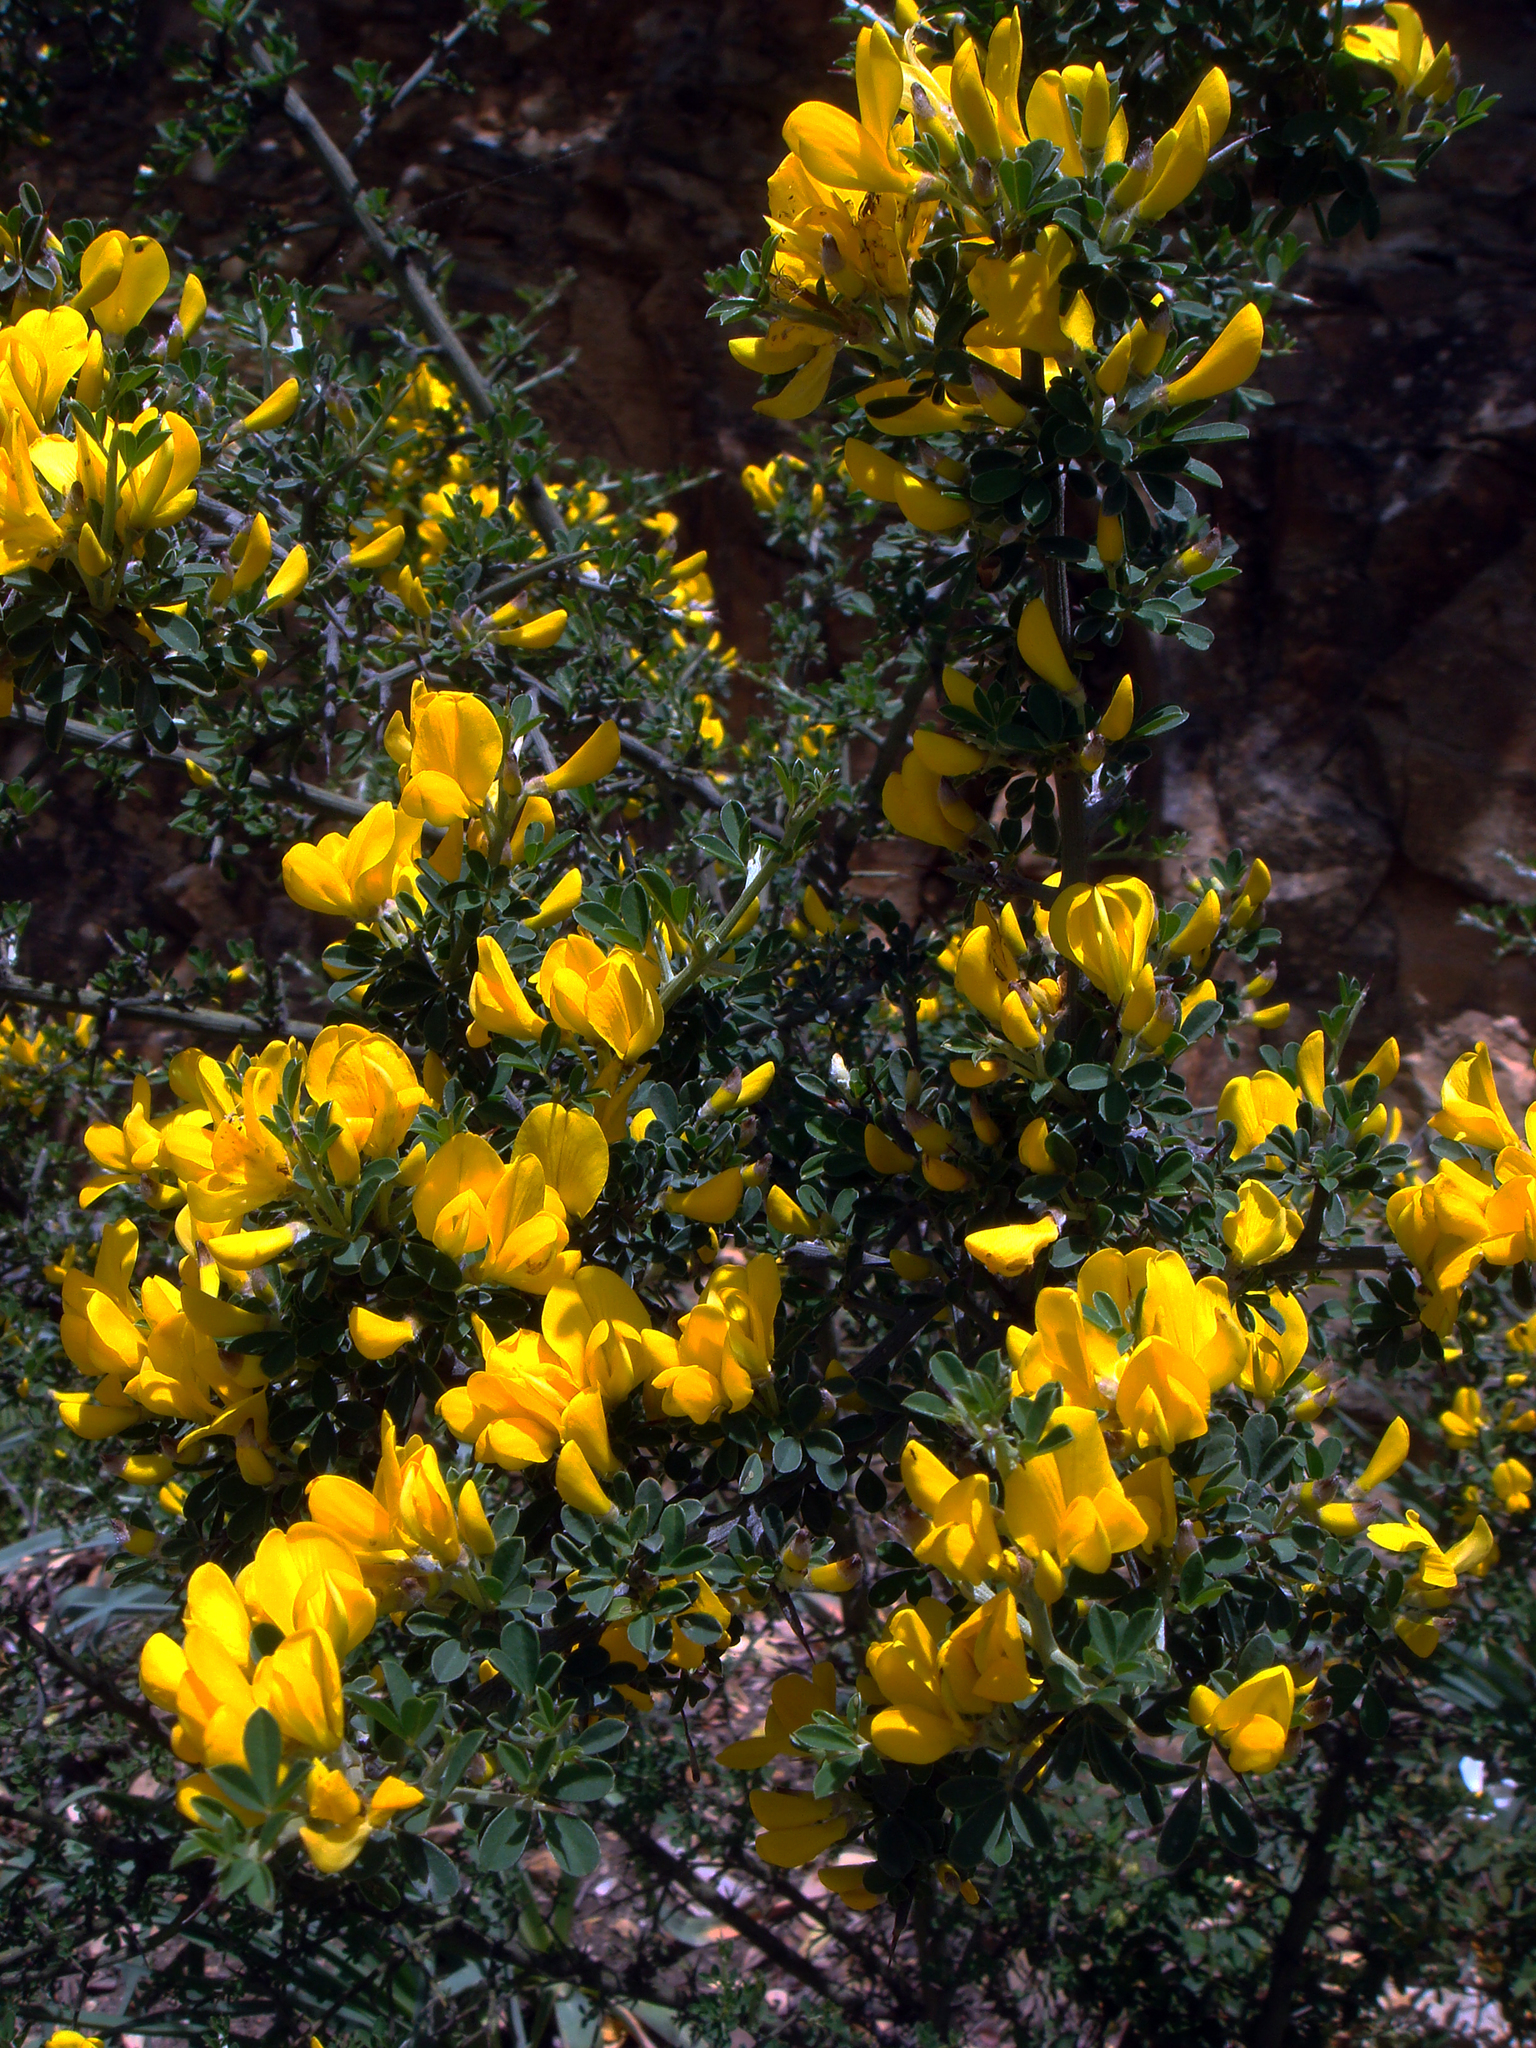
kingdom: Plantae
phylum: Tracheophyta
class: Magnoliopsida
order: Fabales
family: Fabaceae
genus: Calicotome
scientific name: Calicotome villosa
